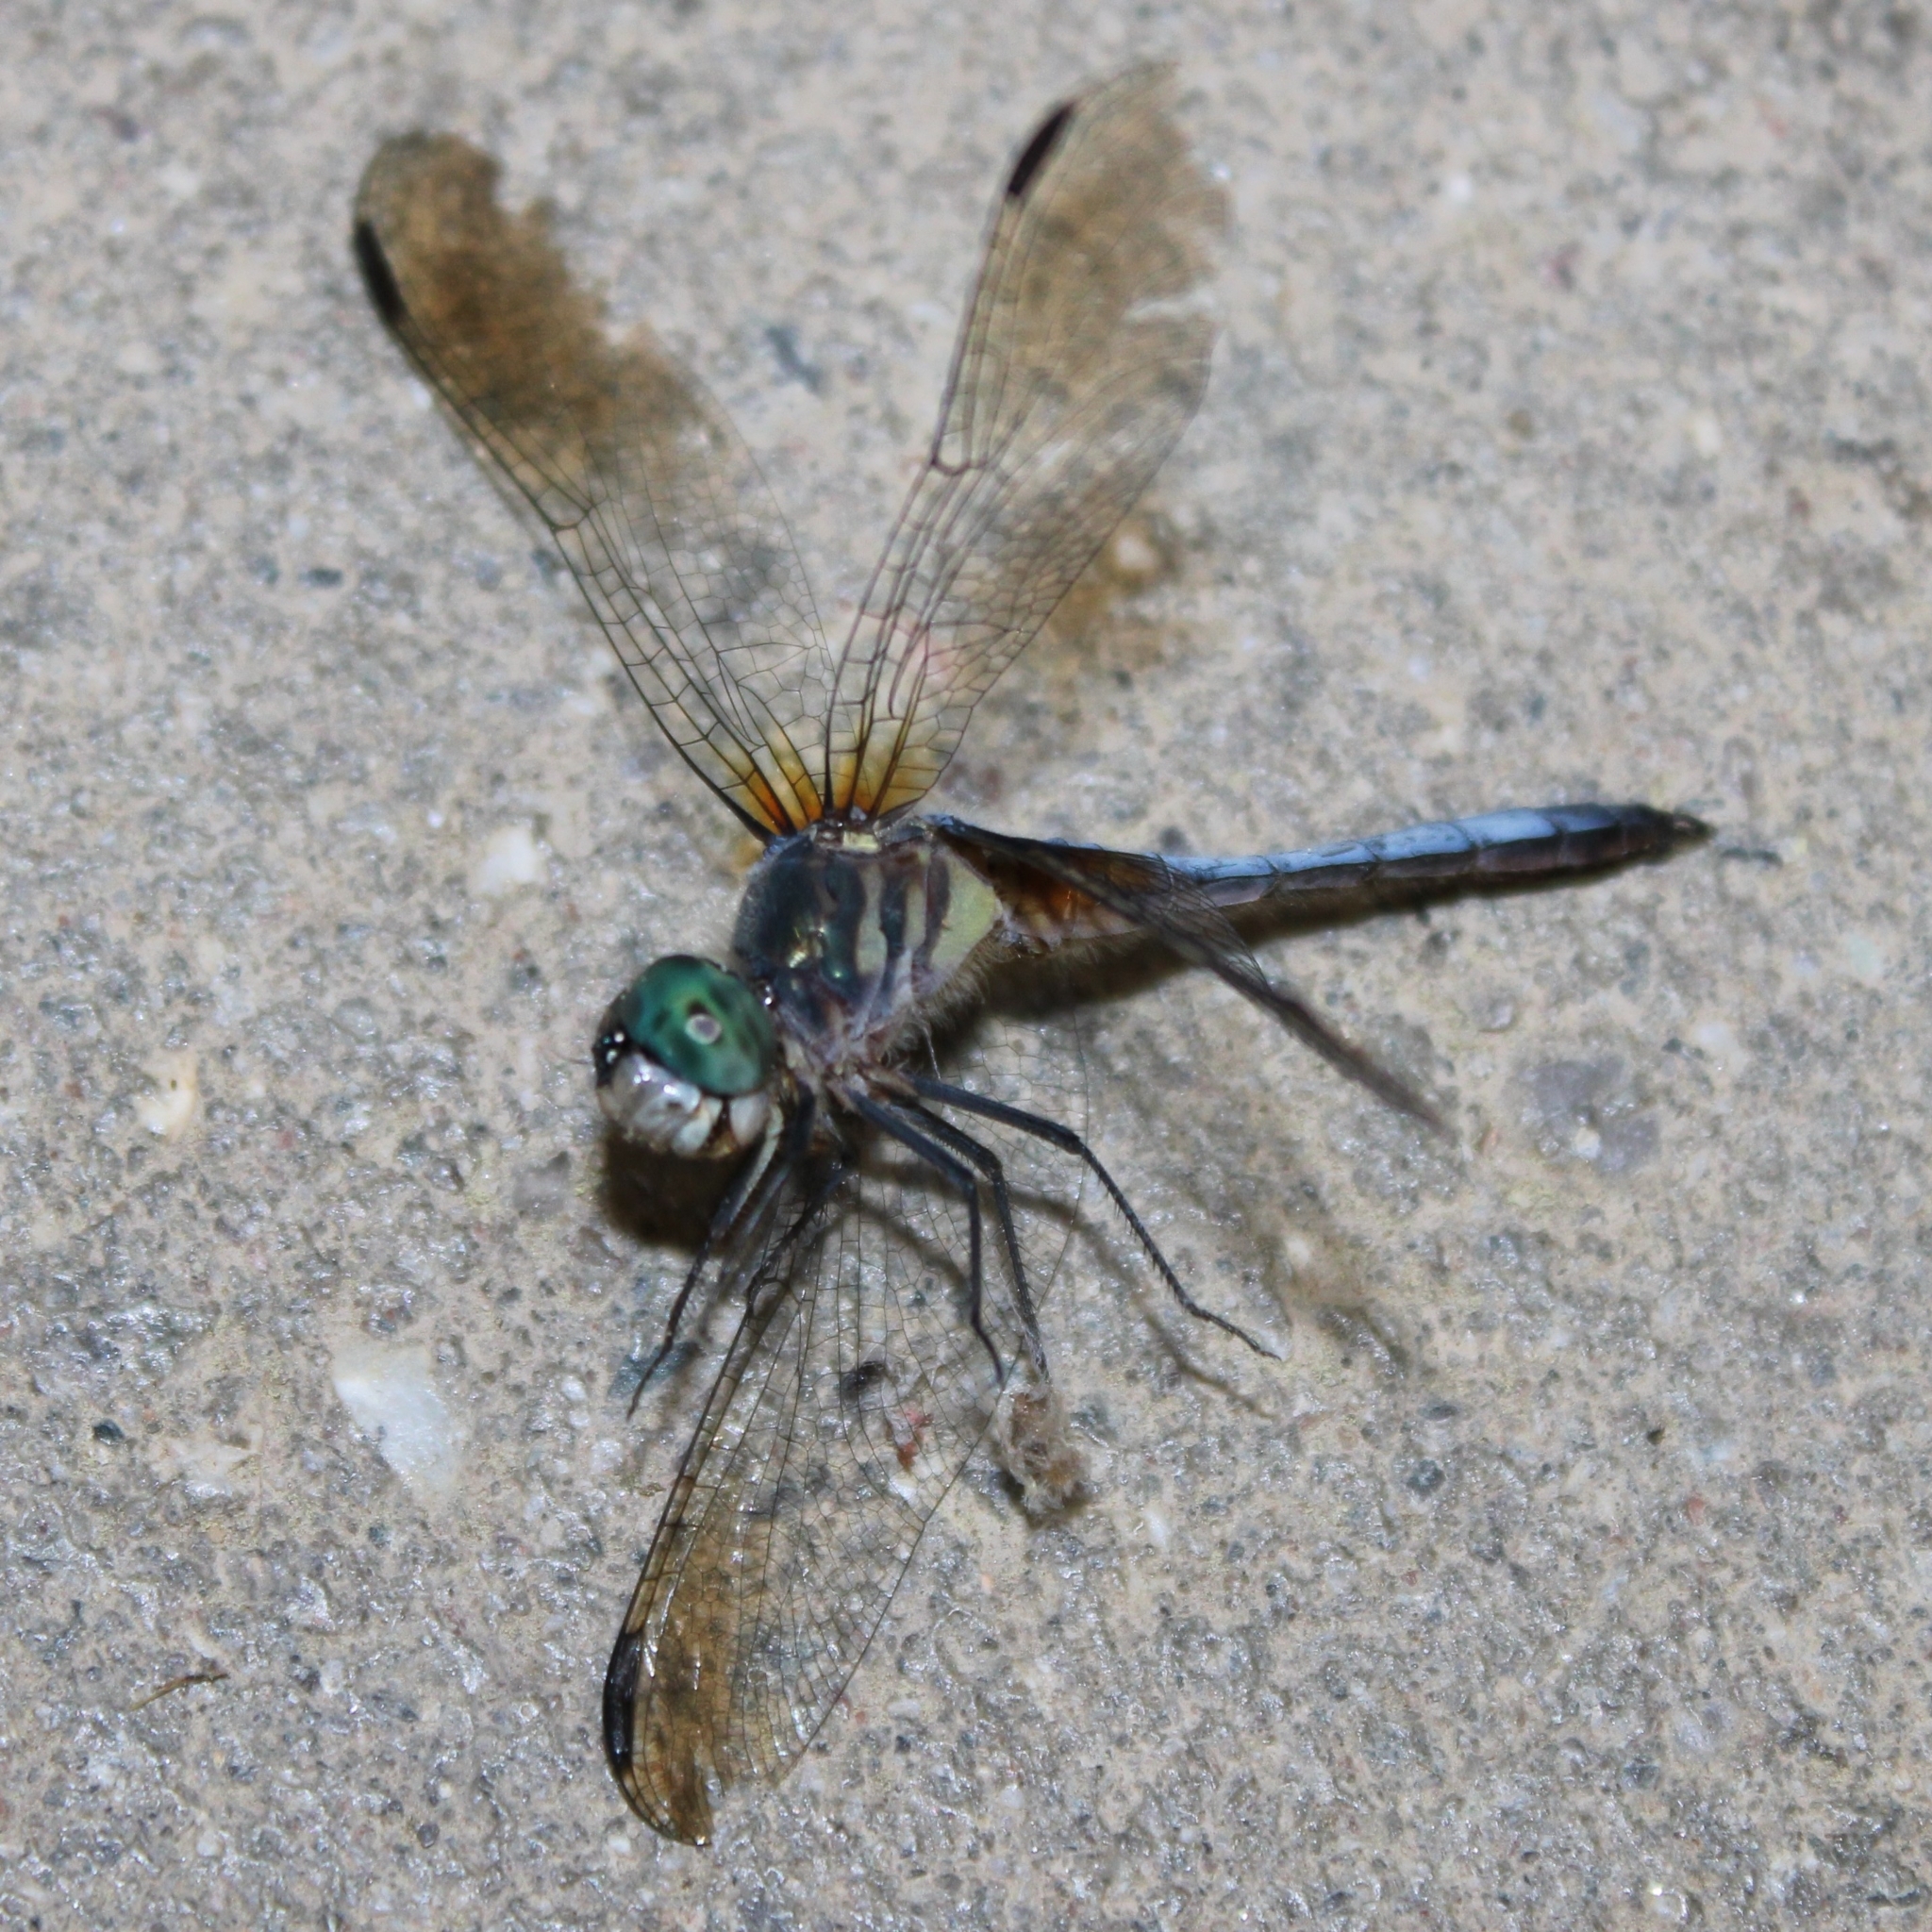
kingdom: Animalia
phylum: Arthropoda
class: Insecta
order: Odonata
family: Libellulidae
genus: Pachydiplax
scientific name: Pachydiplax longipennis
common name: Blue dasher
